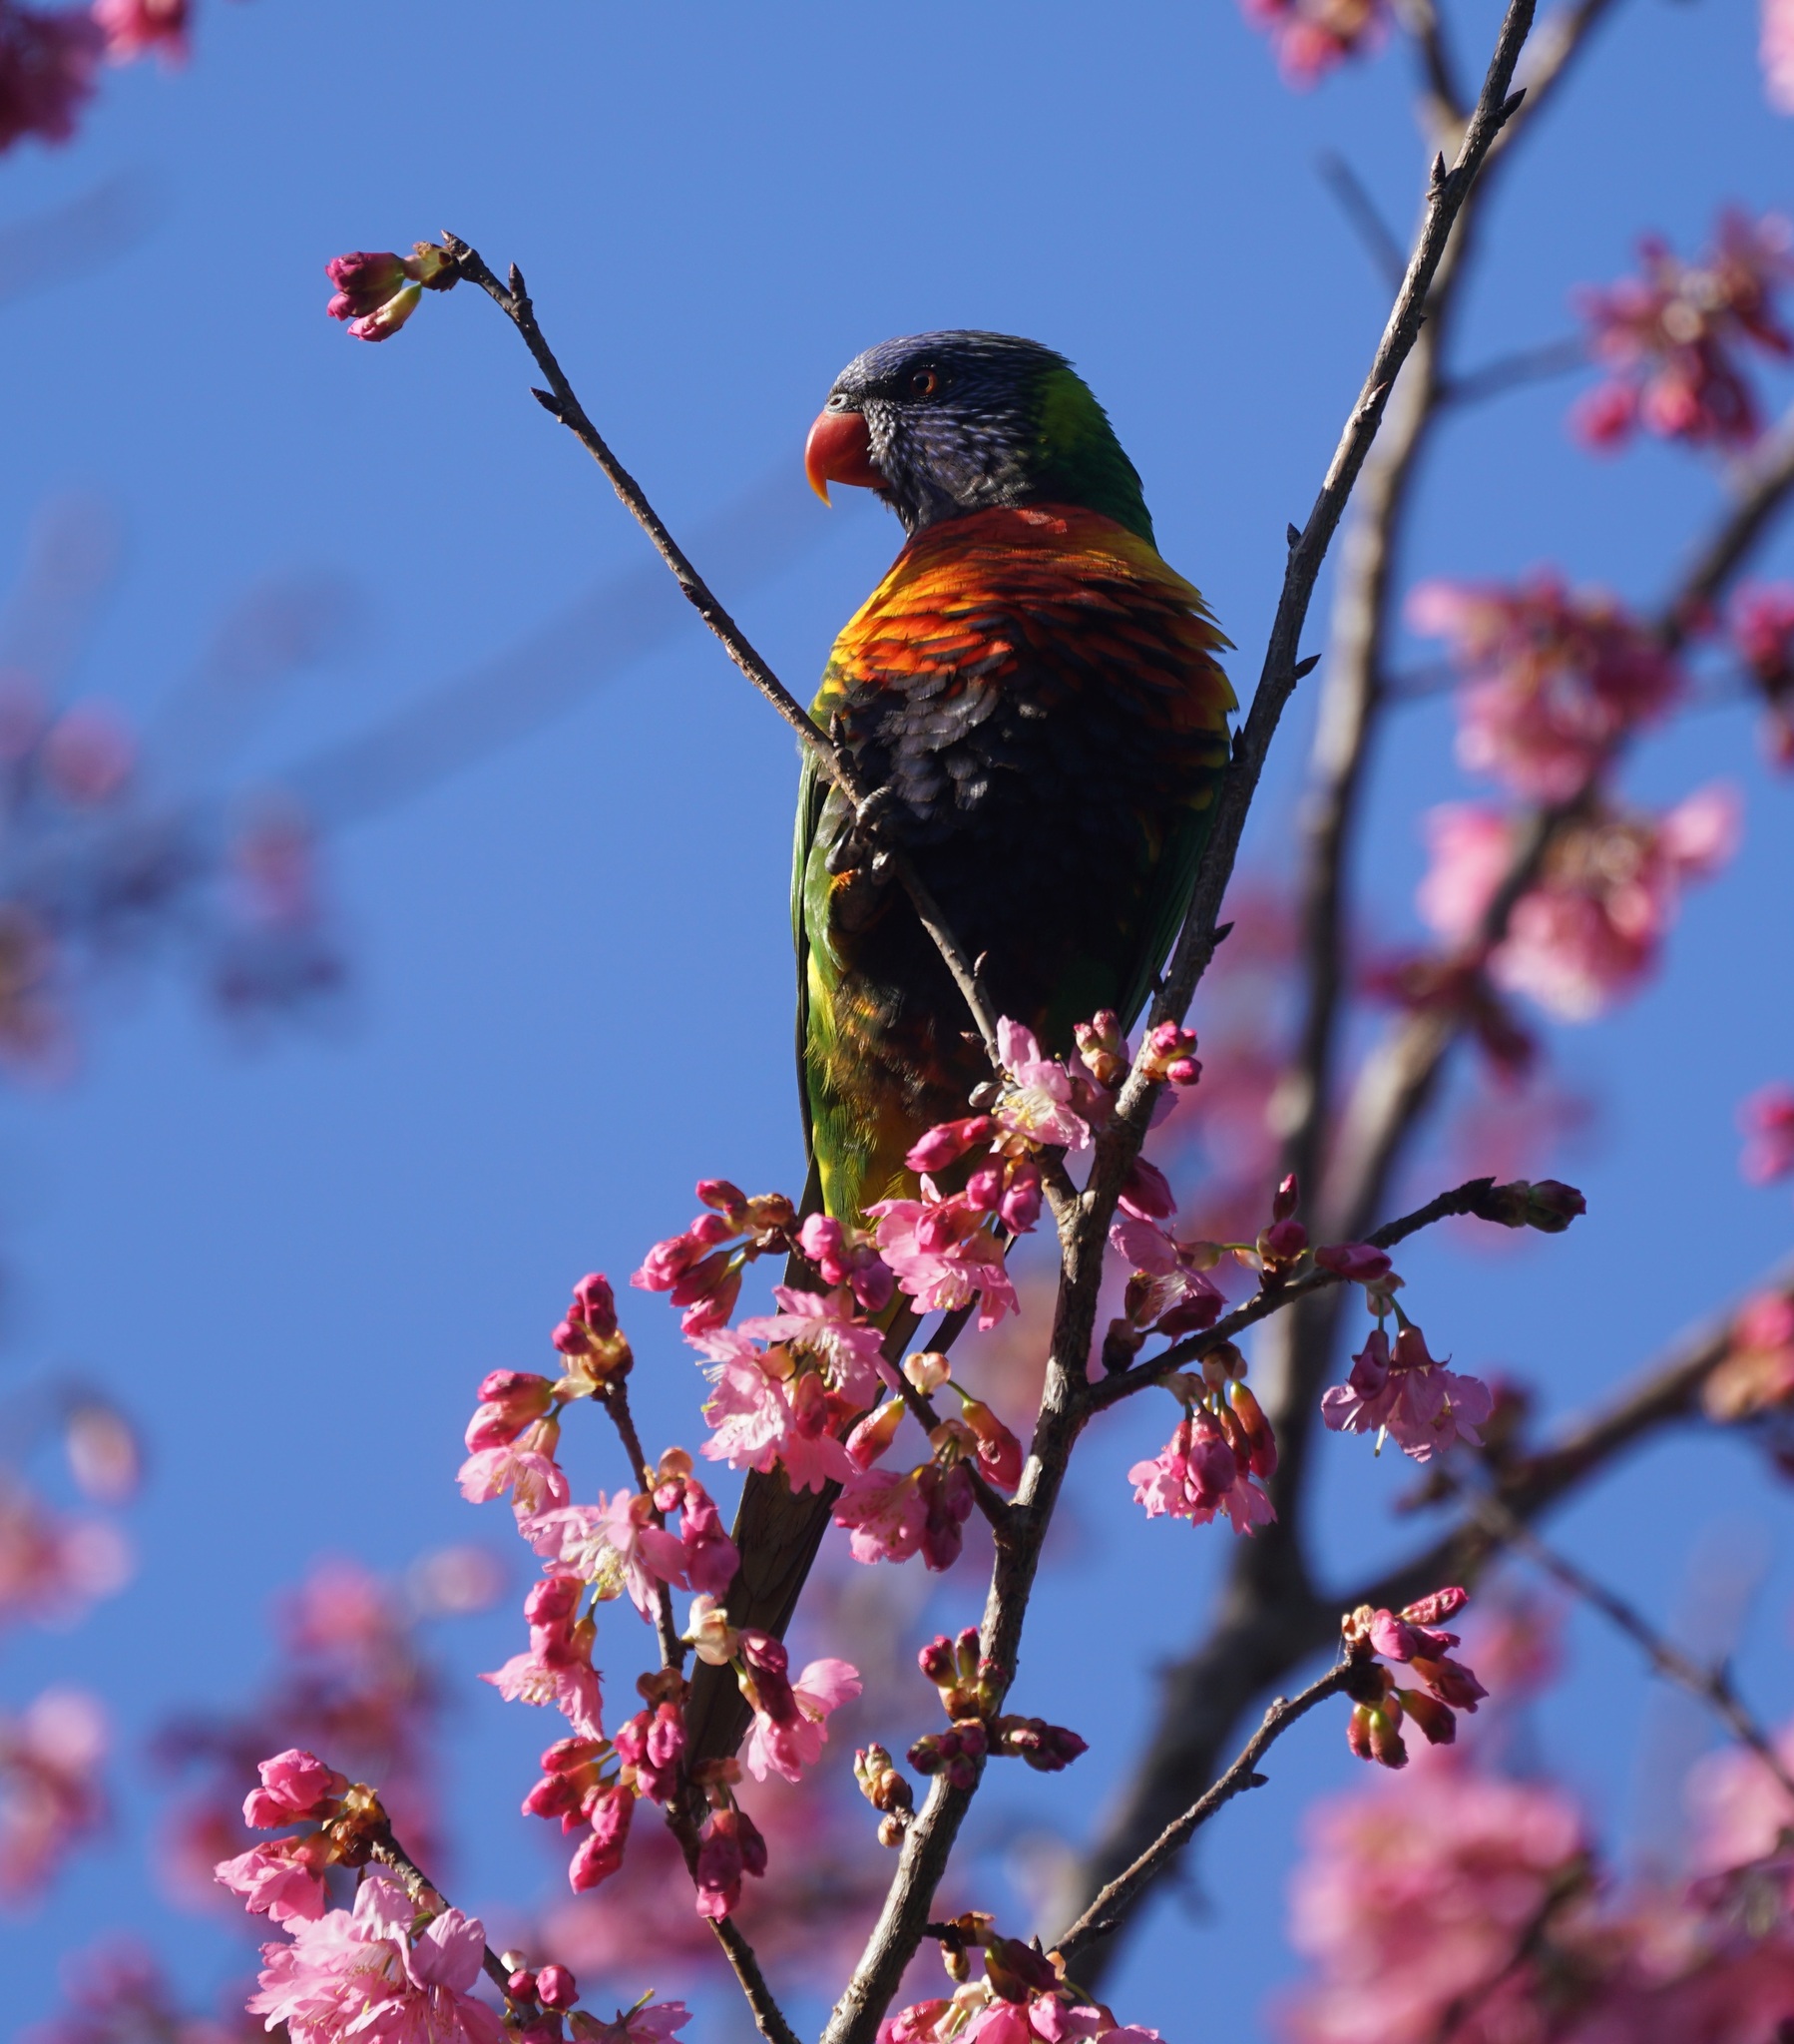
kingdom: Animalia
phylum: Chordata
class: Aves
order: Psittaciformes
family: Psittacidae
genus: Trichoglossus
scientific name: Trichoglossus haematodus
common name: Coconut lorikeet
